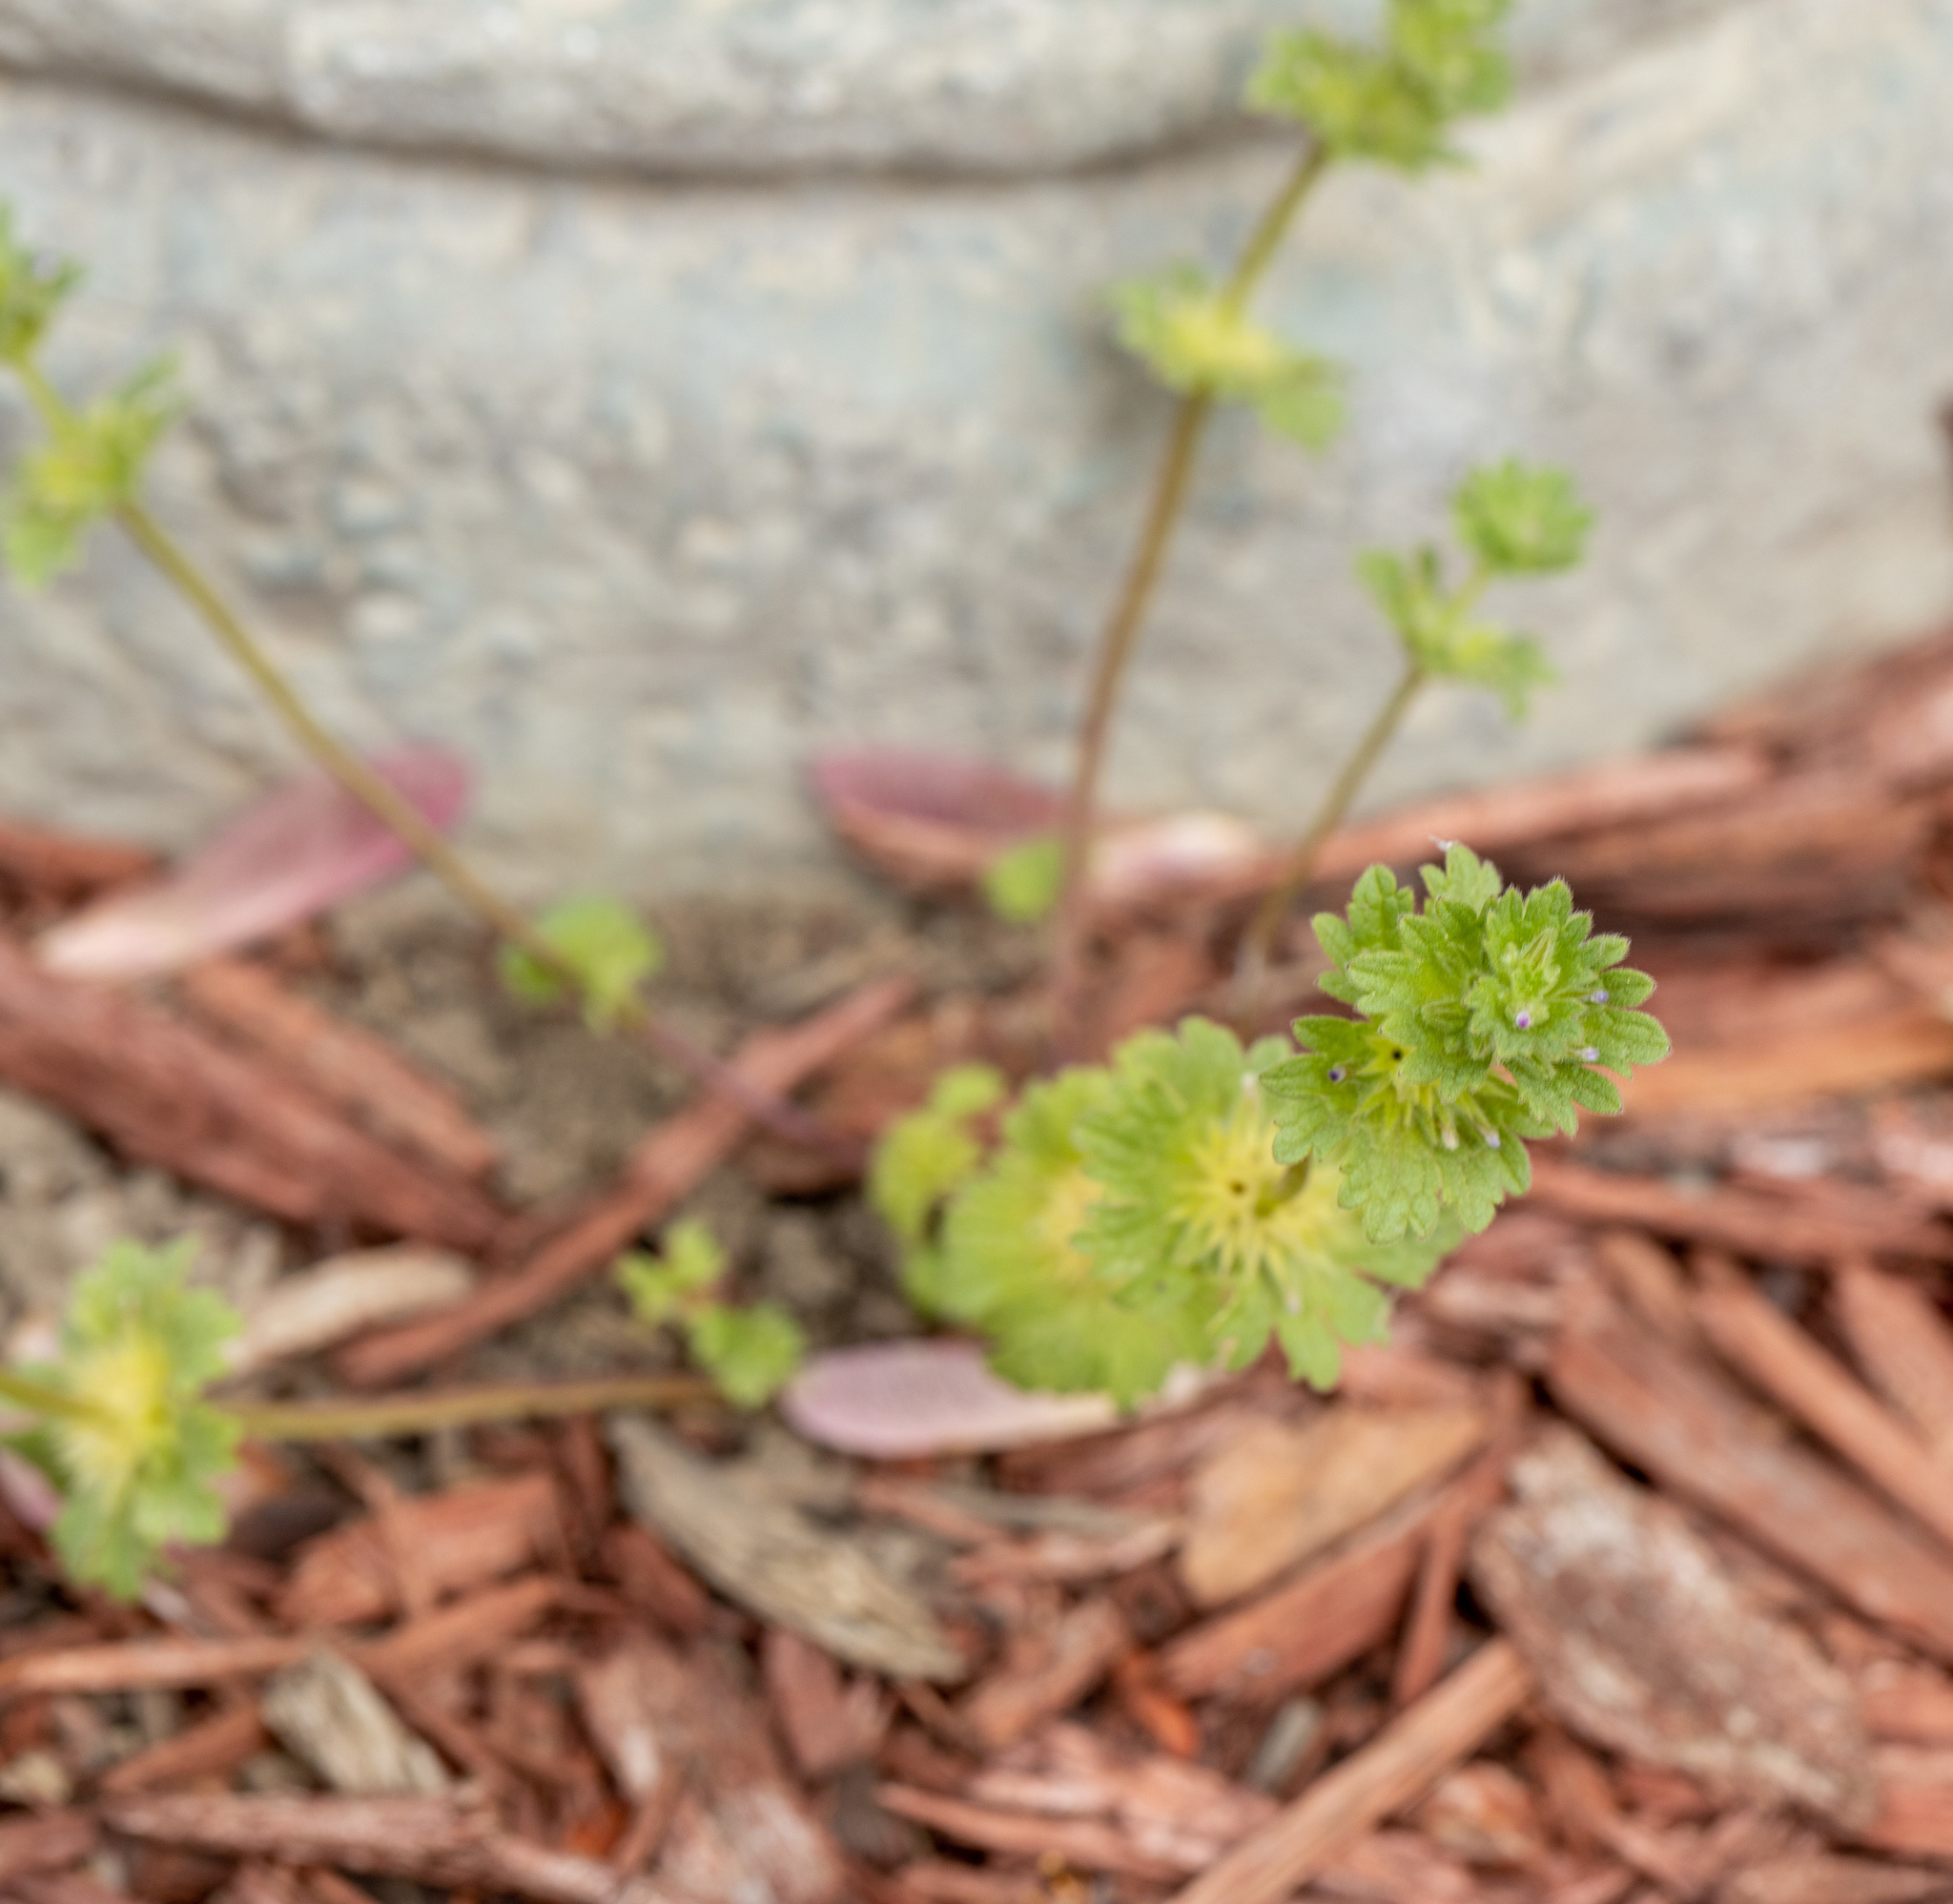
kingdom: Plantae
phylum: Tracheophyta
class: Magnoliopsida
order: Lamiales
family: Lamiaceae
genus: Lamium
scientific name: Lamium amplexicaule
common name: Henbit dead-nettle
